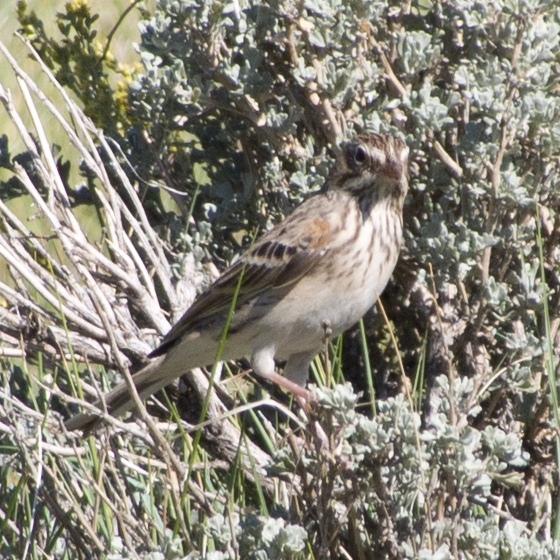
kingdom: Animalia
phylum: Chordata
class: Aves
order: Passeriformes
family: Passerellidae
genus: Pooecetes
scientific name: Pooecetes gramineus
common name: Vesper sparrow
